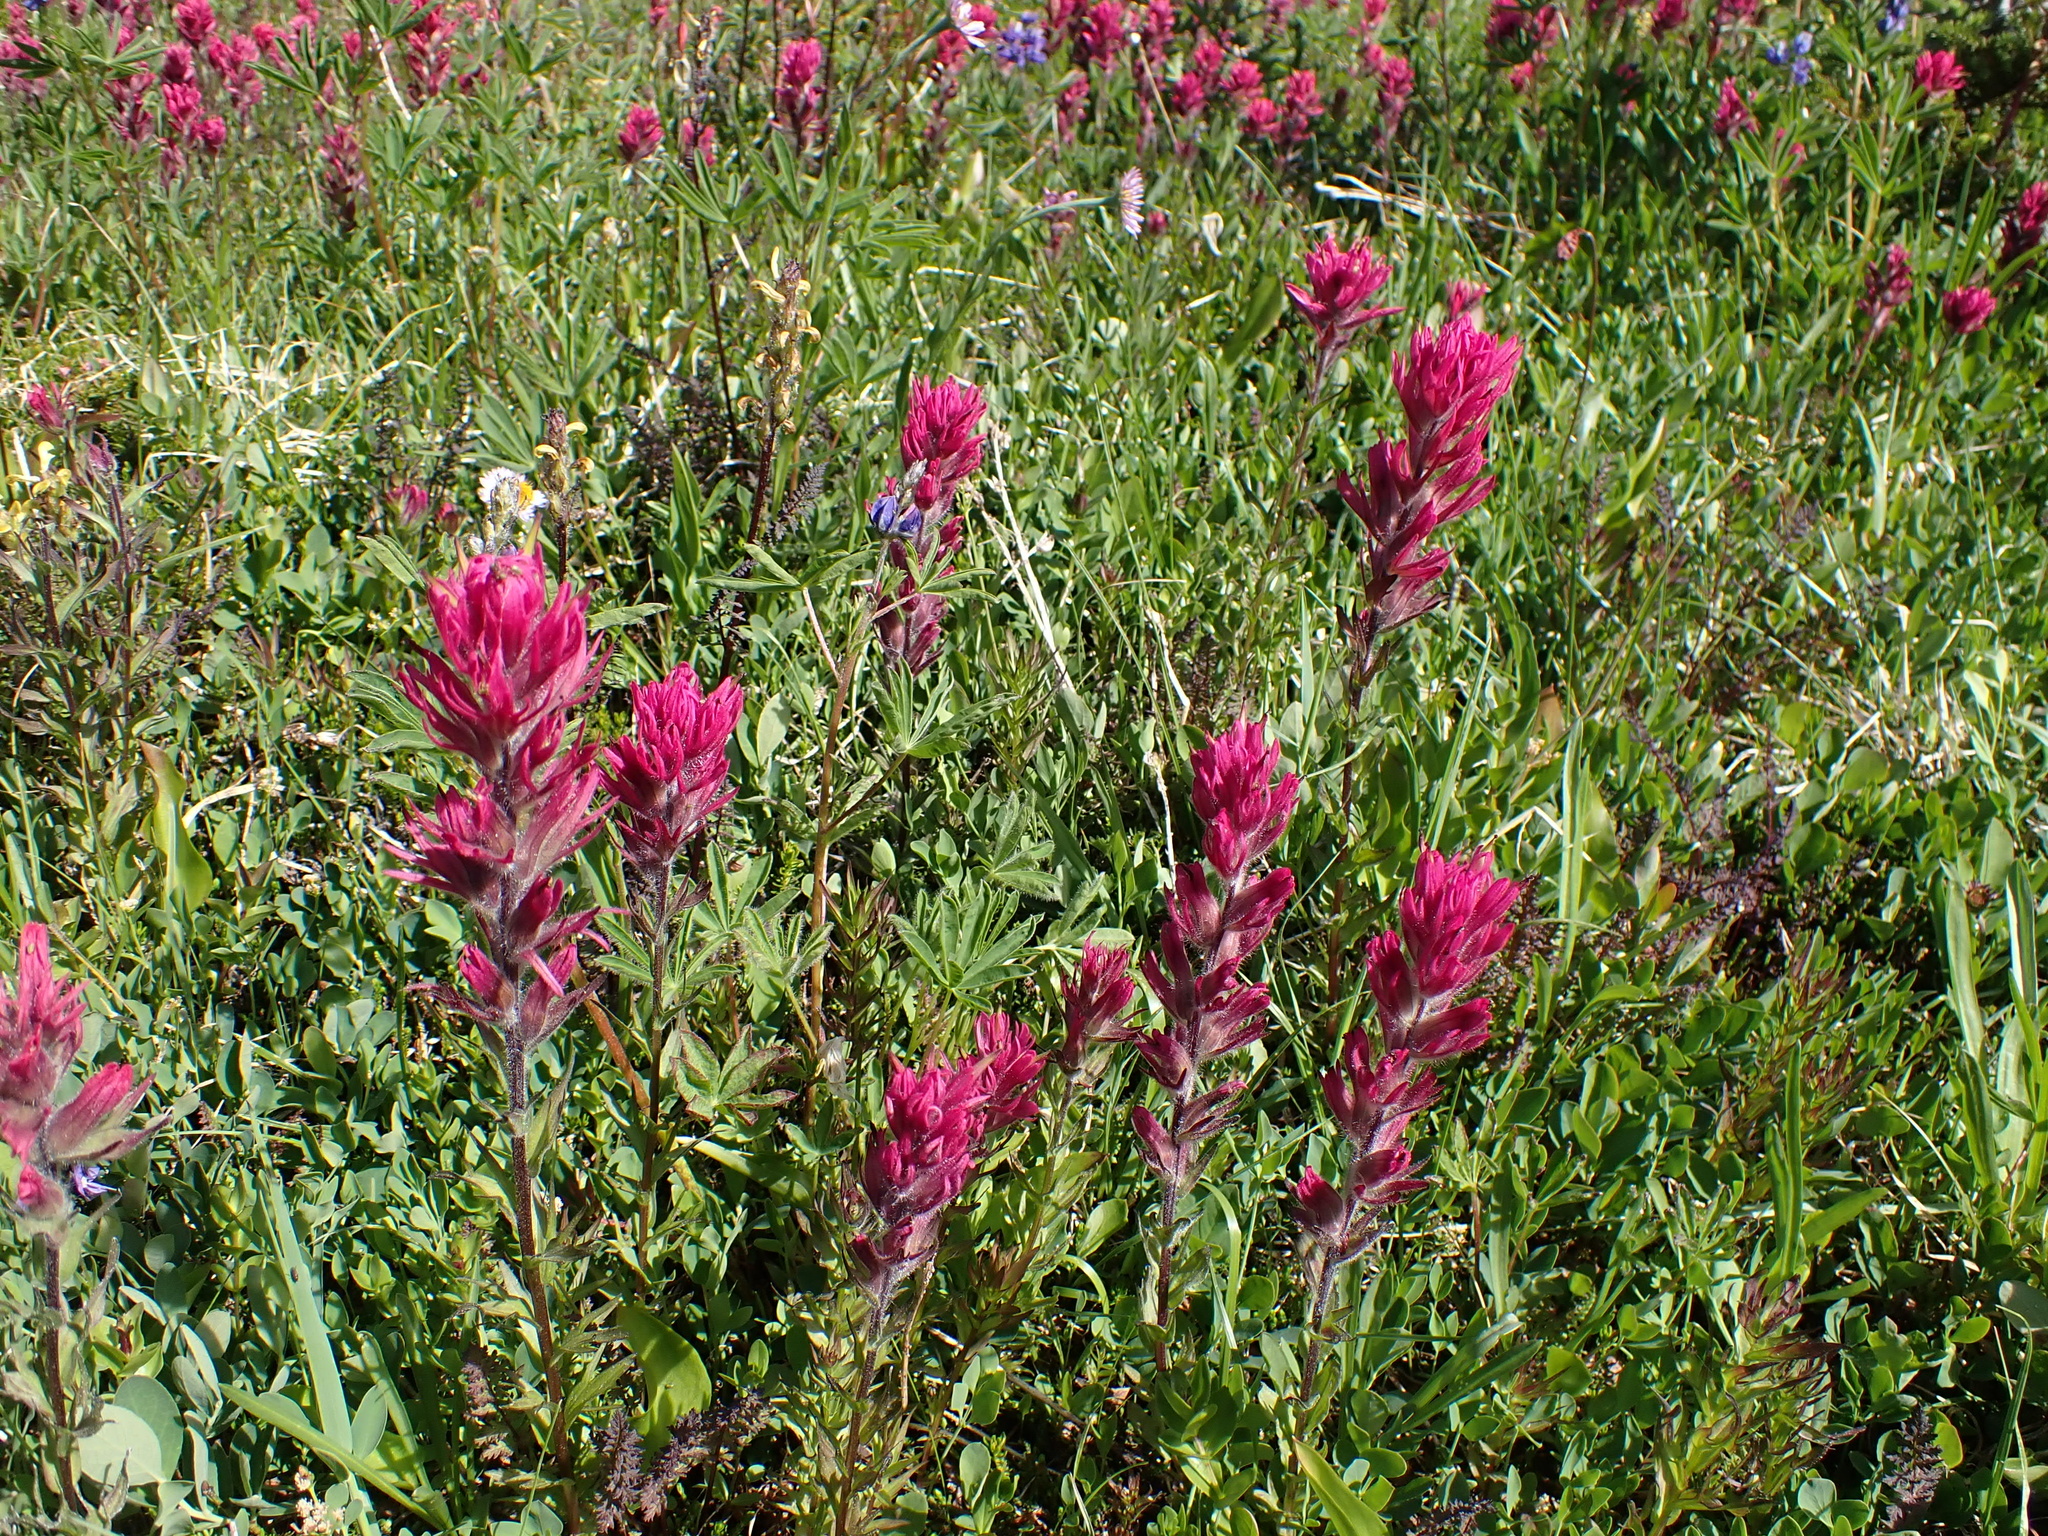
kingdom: Plantae
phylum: Tracheophyta
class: Magnoliopsida
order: Lamiales
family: Orobanchaceae
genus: Castilleja
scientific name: Castilleja parviflora
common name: Mountain paintbrush
